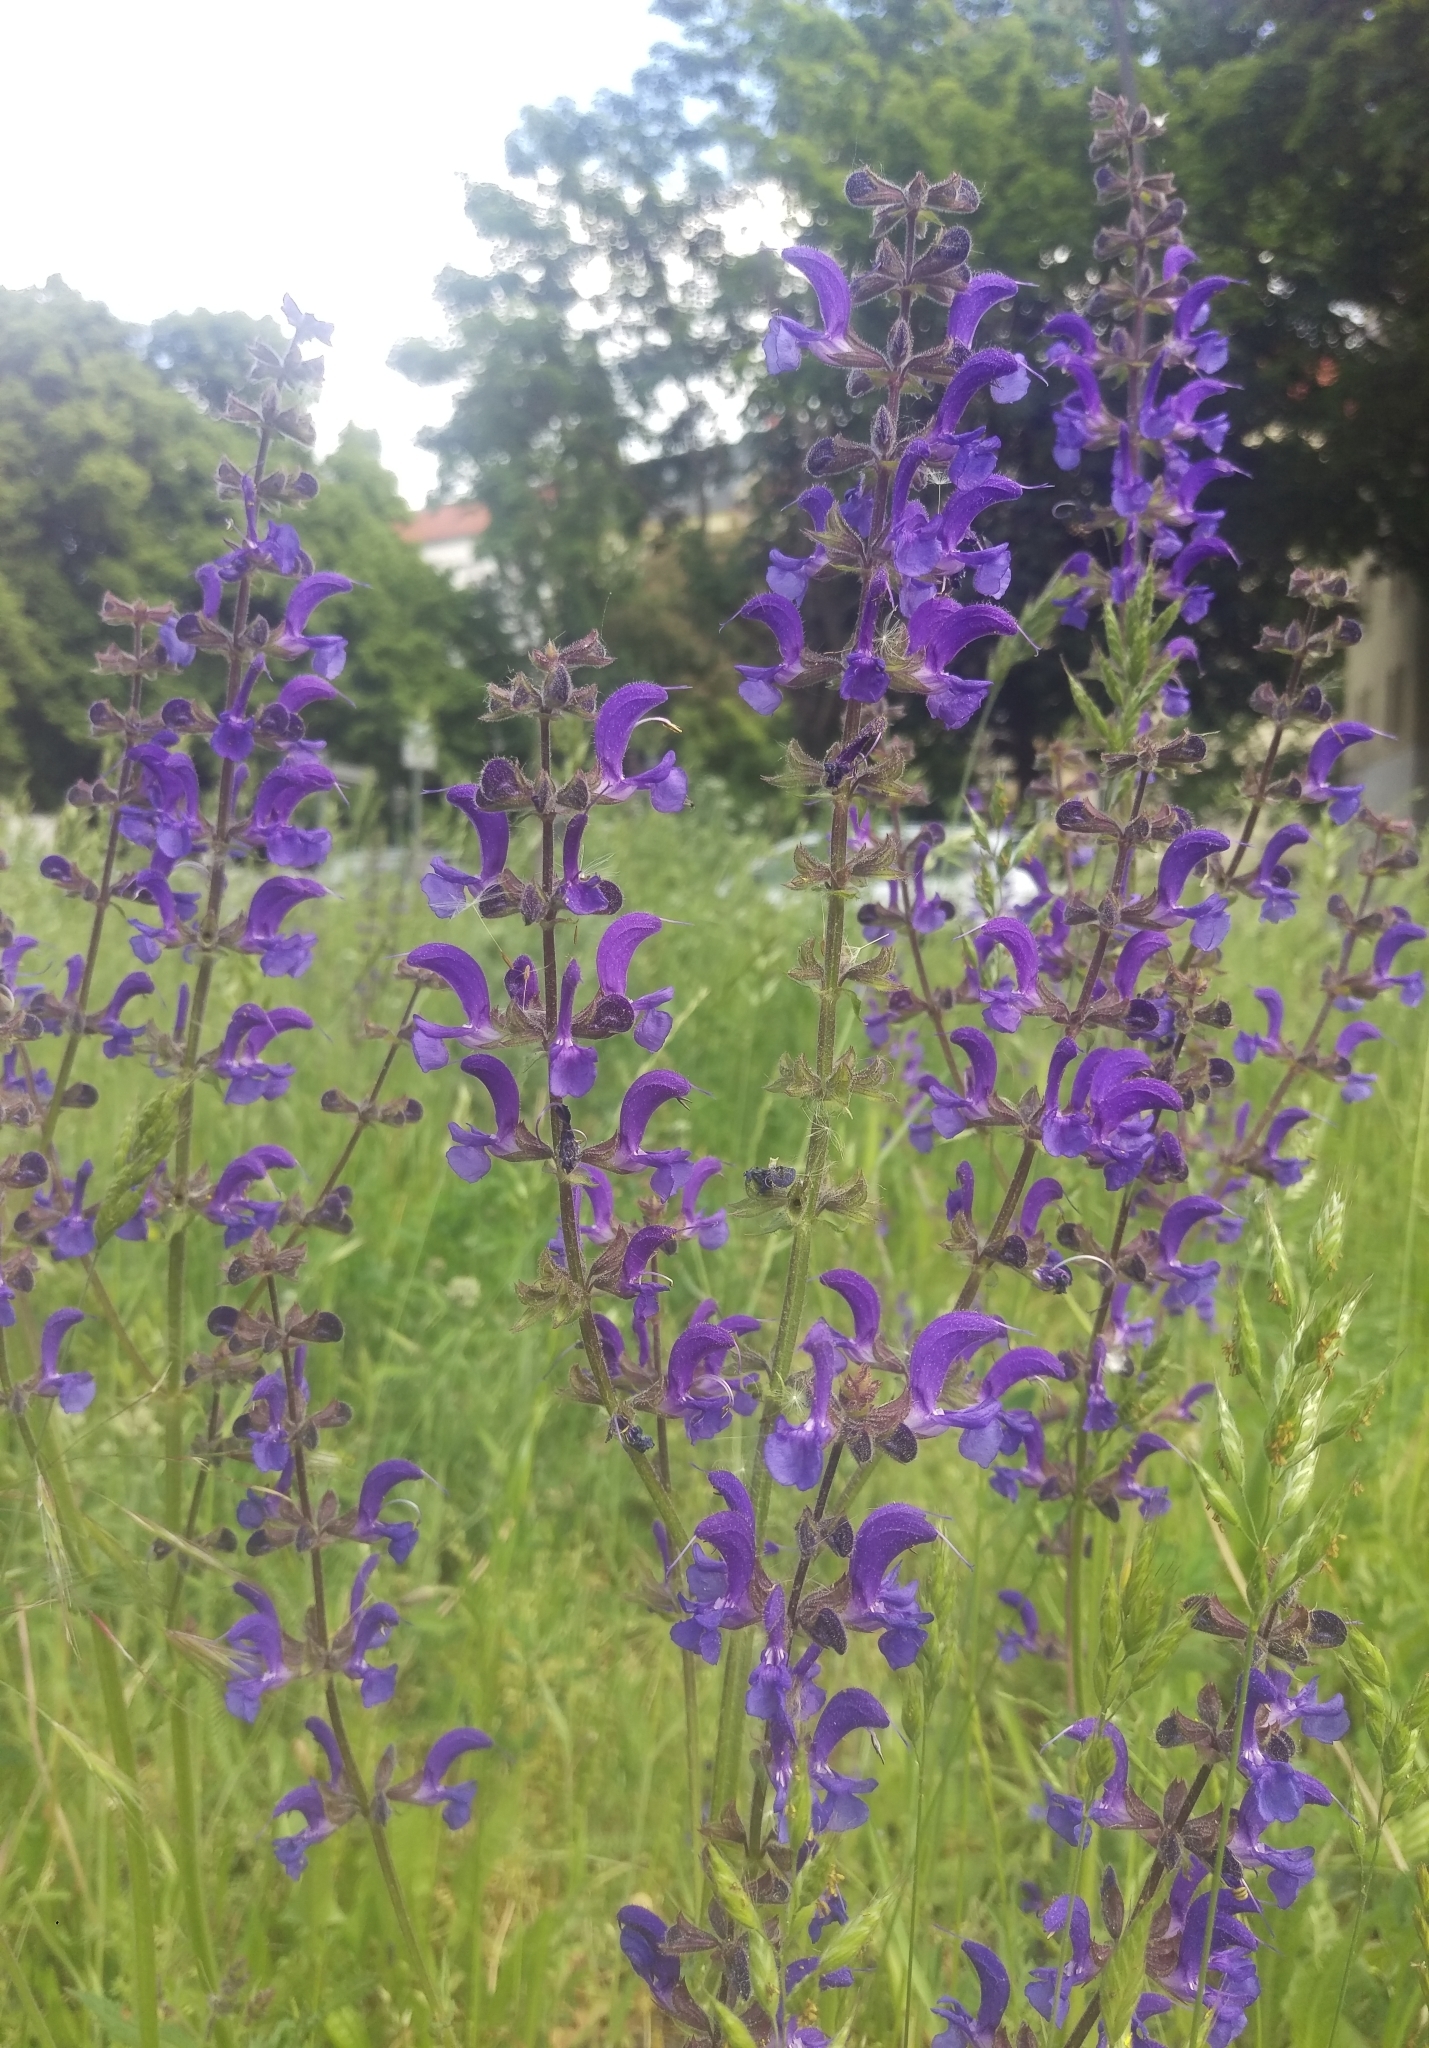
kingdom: Plantae
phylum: Tracheophyta
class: Magnoliopsida
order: Lamiales
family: Lamiaceae
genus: Salvia
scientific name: Salvia pratensis
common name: Meadow sage
